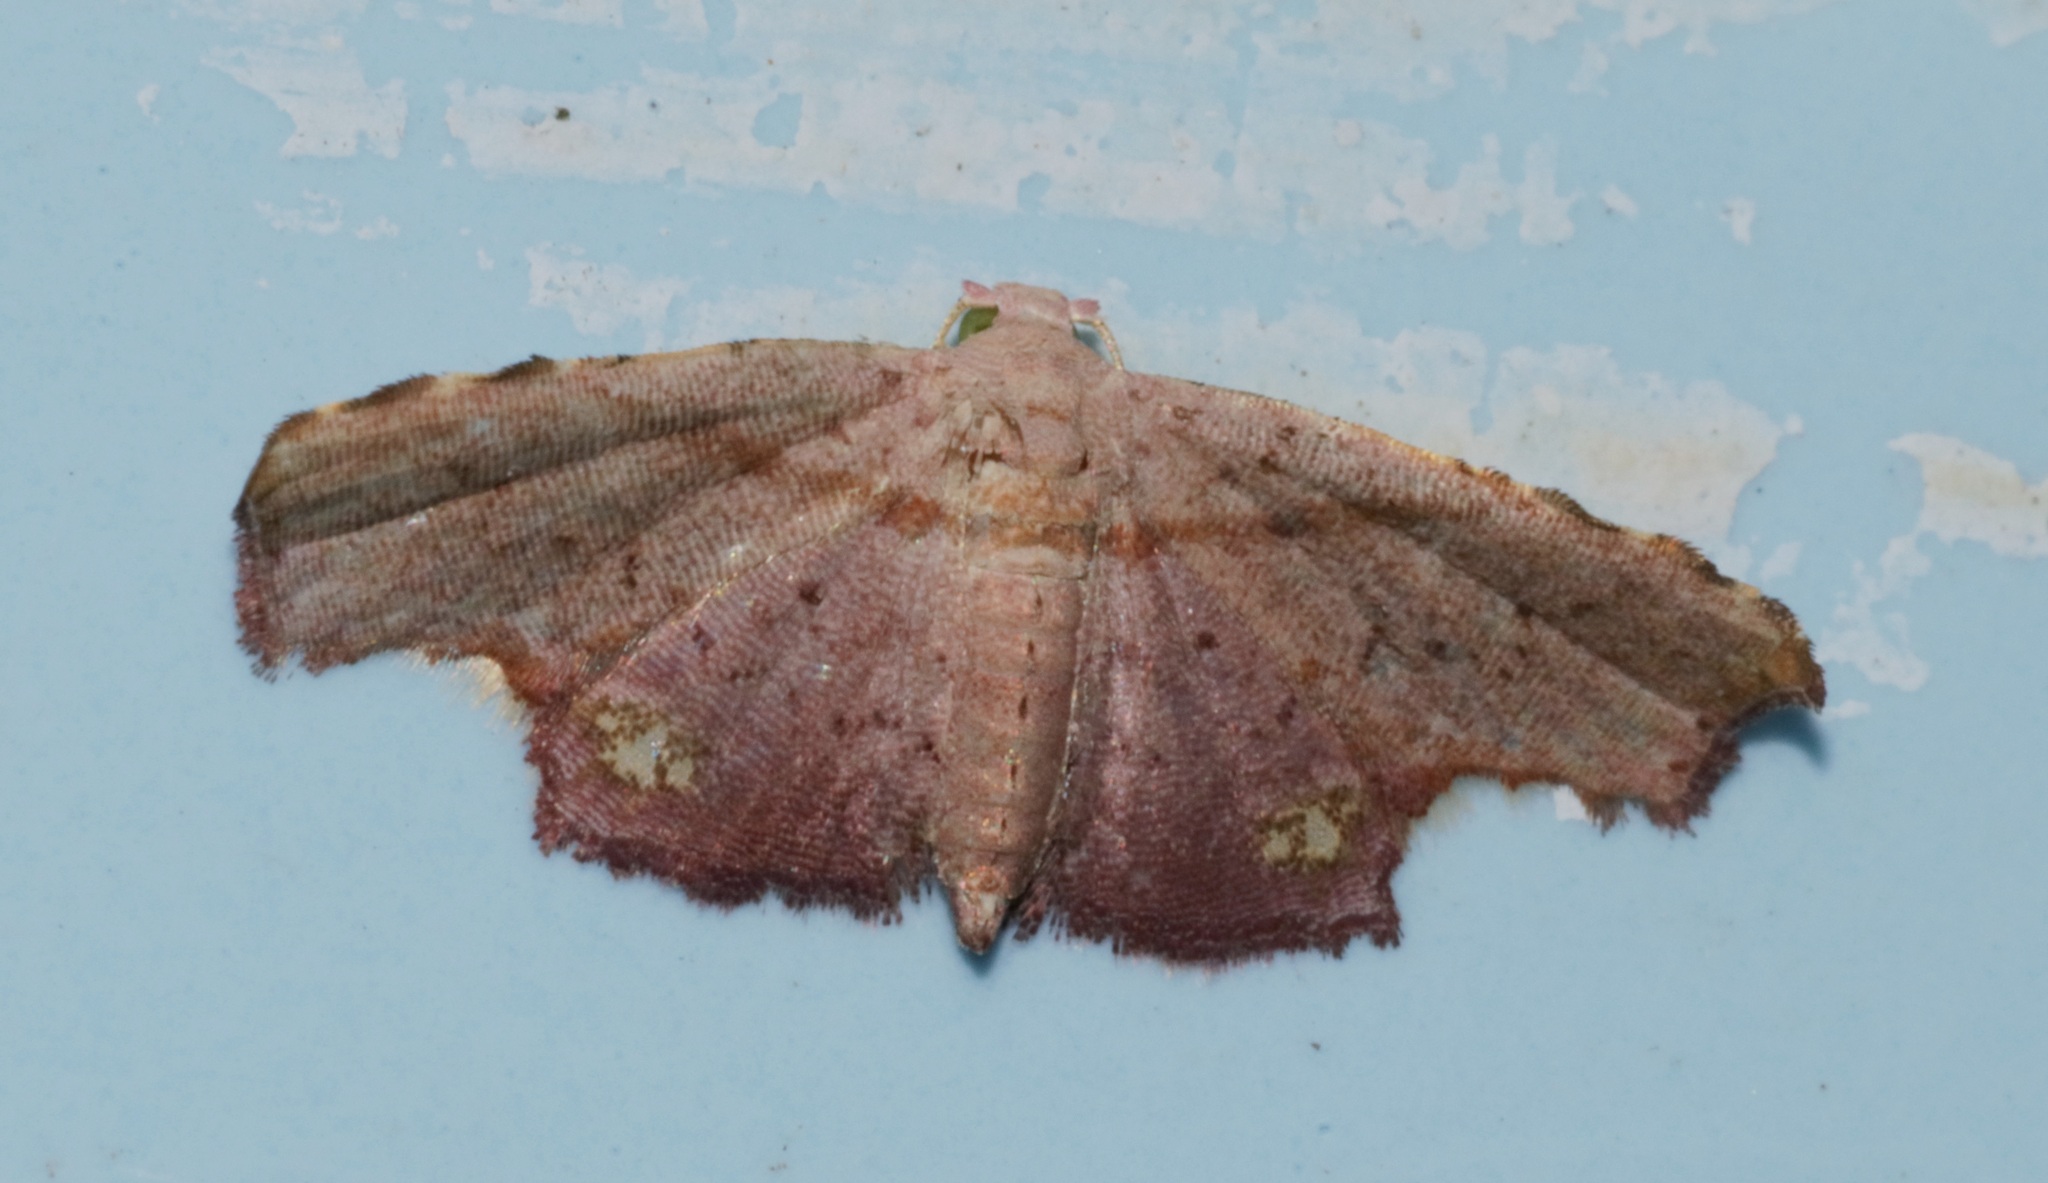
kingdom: Animalia
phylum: Arthropoda
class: Insecta
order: Lepidoptera
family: Noctuidae
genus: Niaccaba
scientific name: Niaccaba sumptualis
